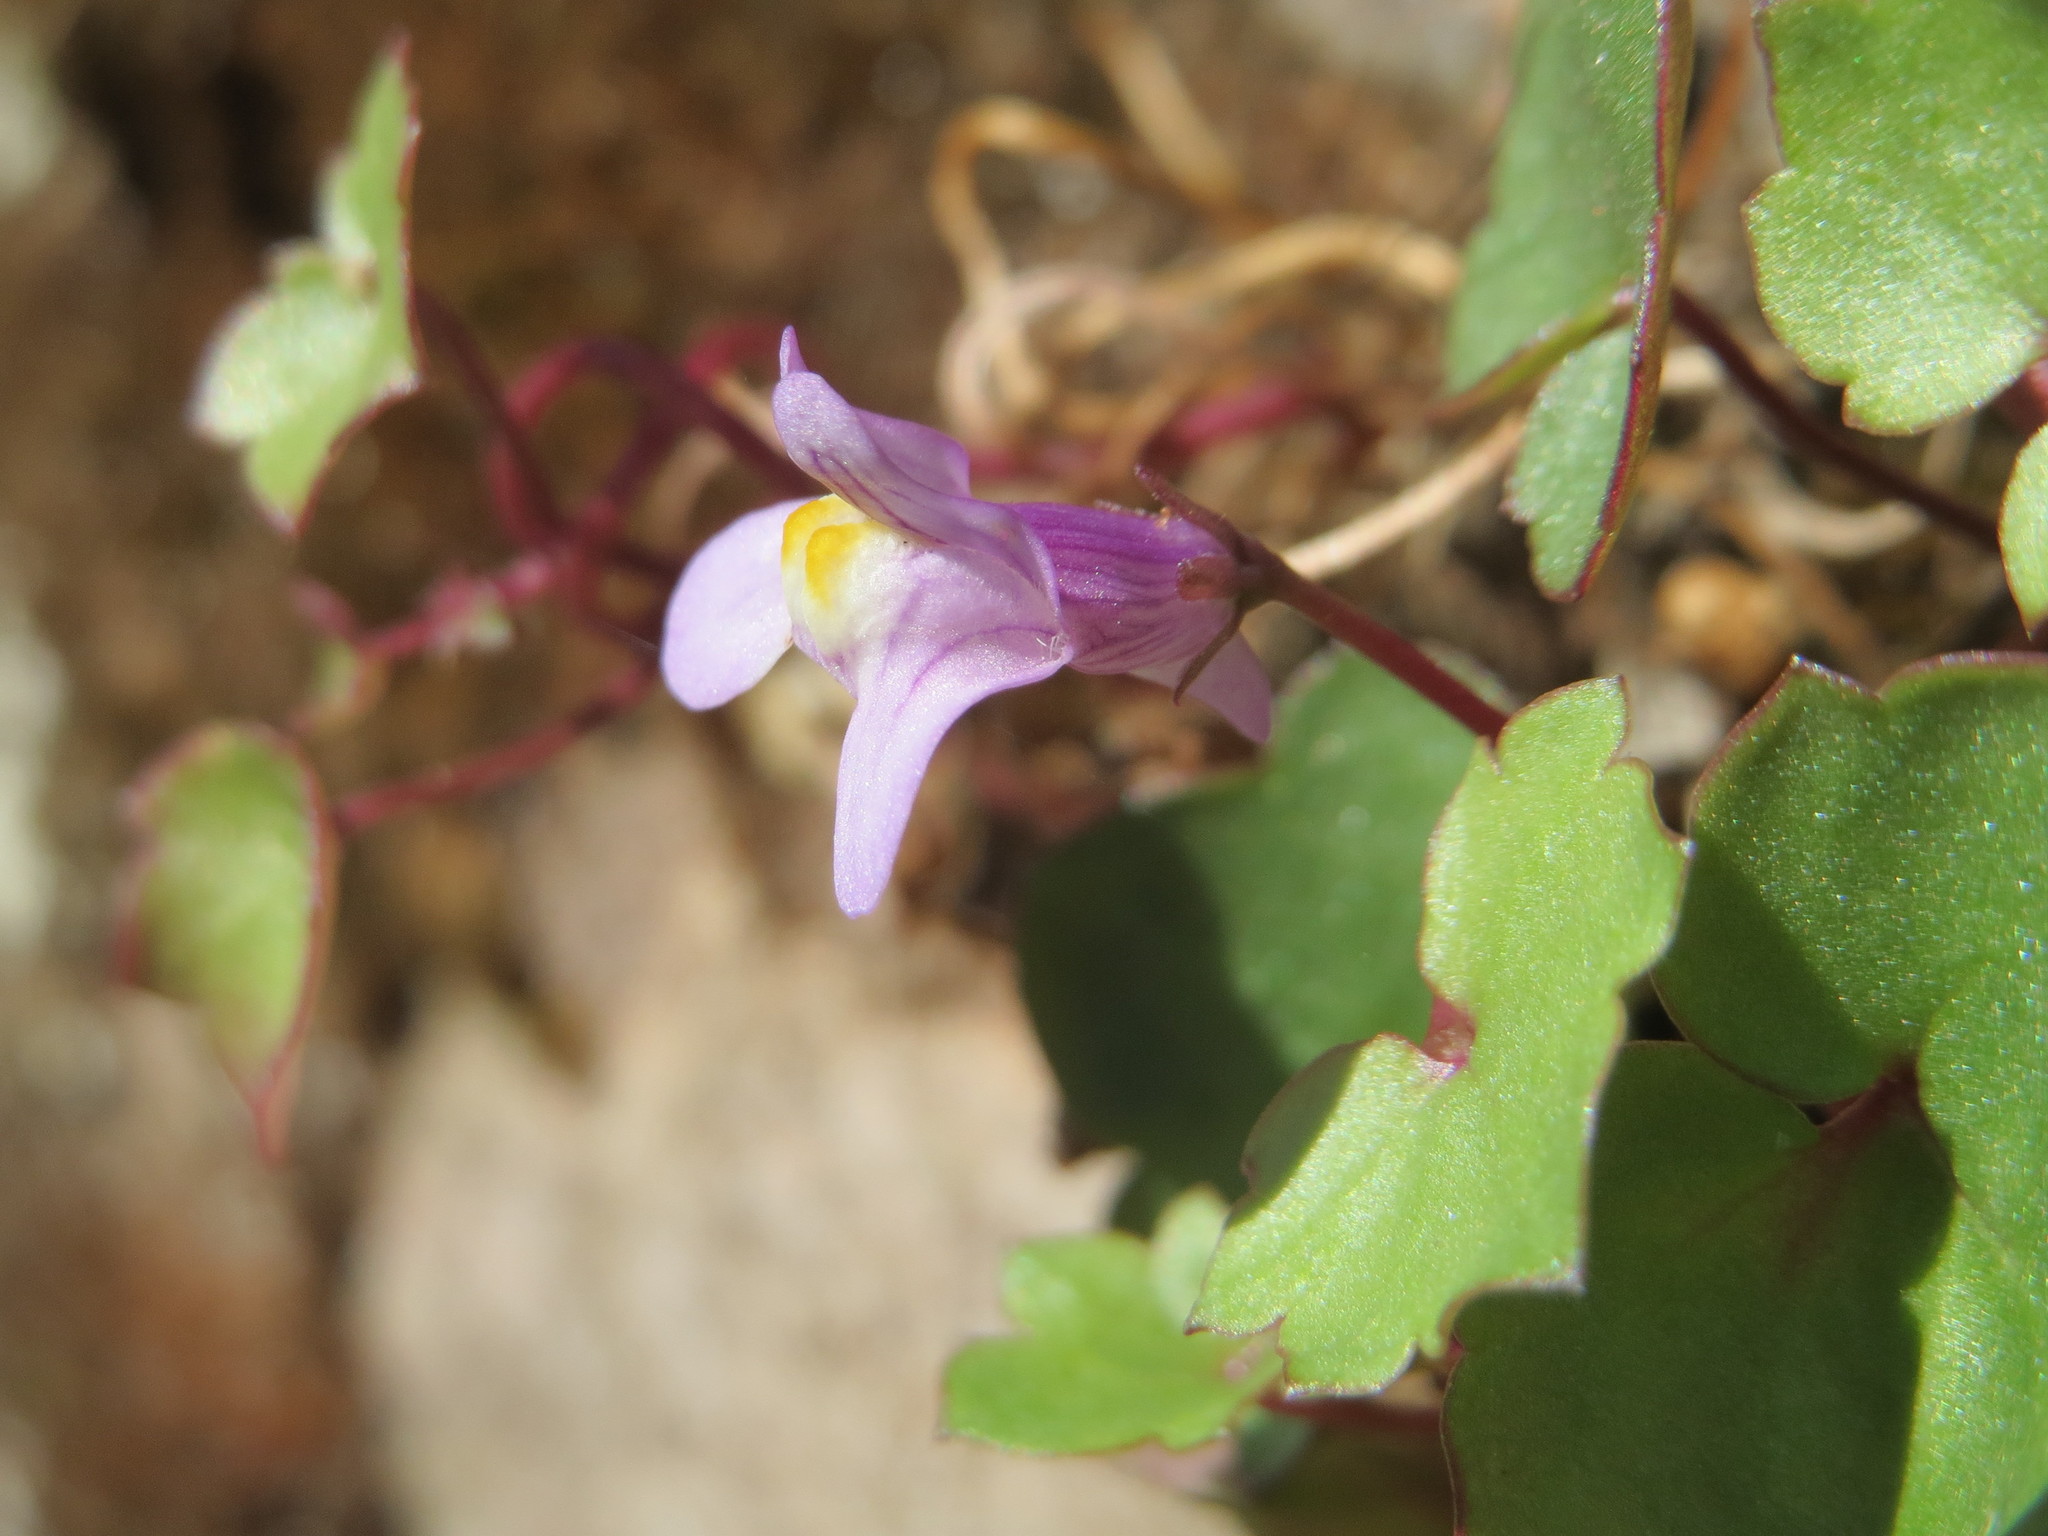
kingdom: Plantae
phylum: Tracheophyta
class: Magnoliopsida
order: Lamiales
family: Plantaginaceae
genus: Cymbalaria
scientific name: Cymbalaria muralis
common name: Ivy-leaved toadflax
